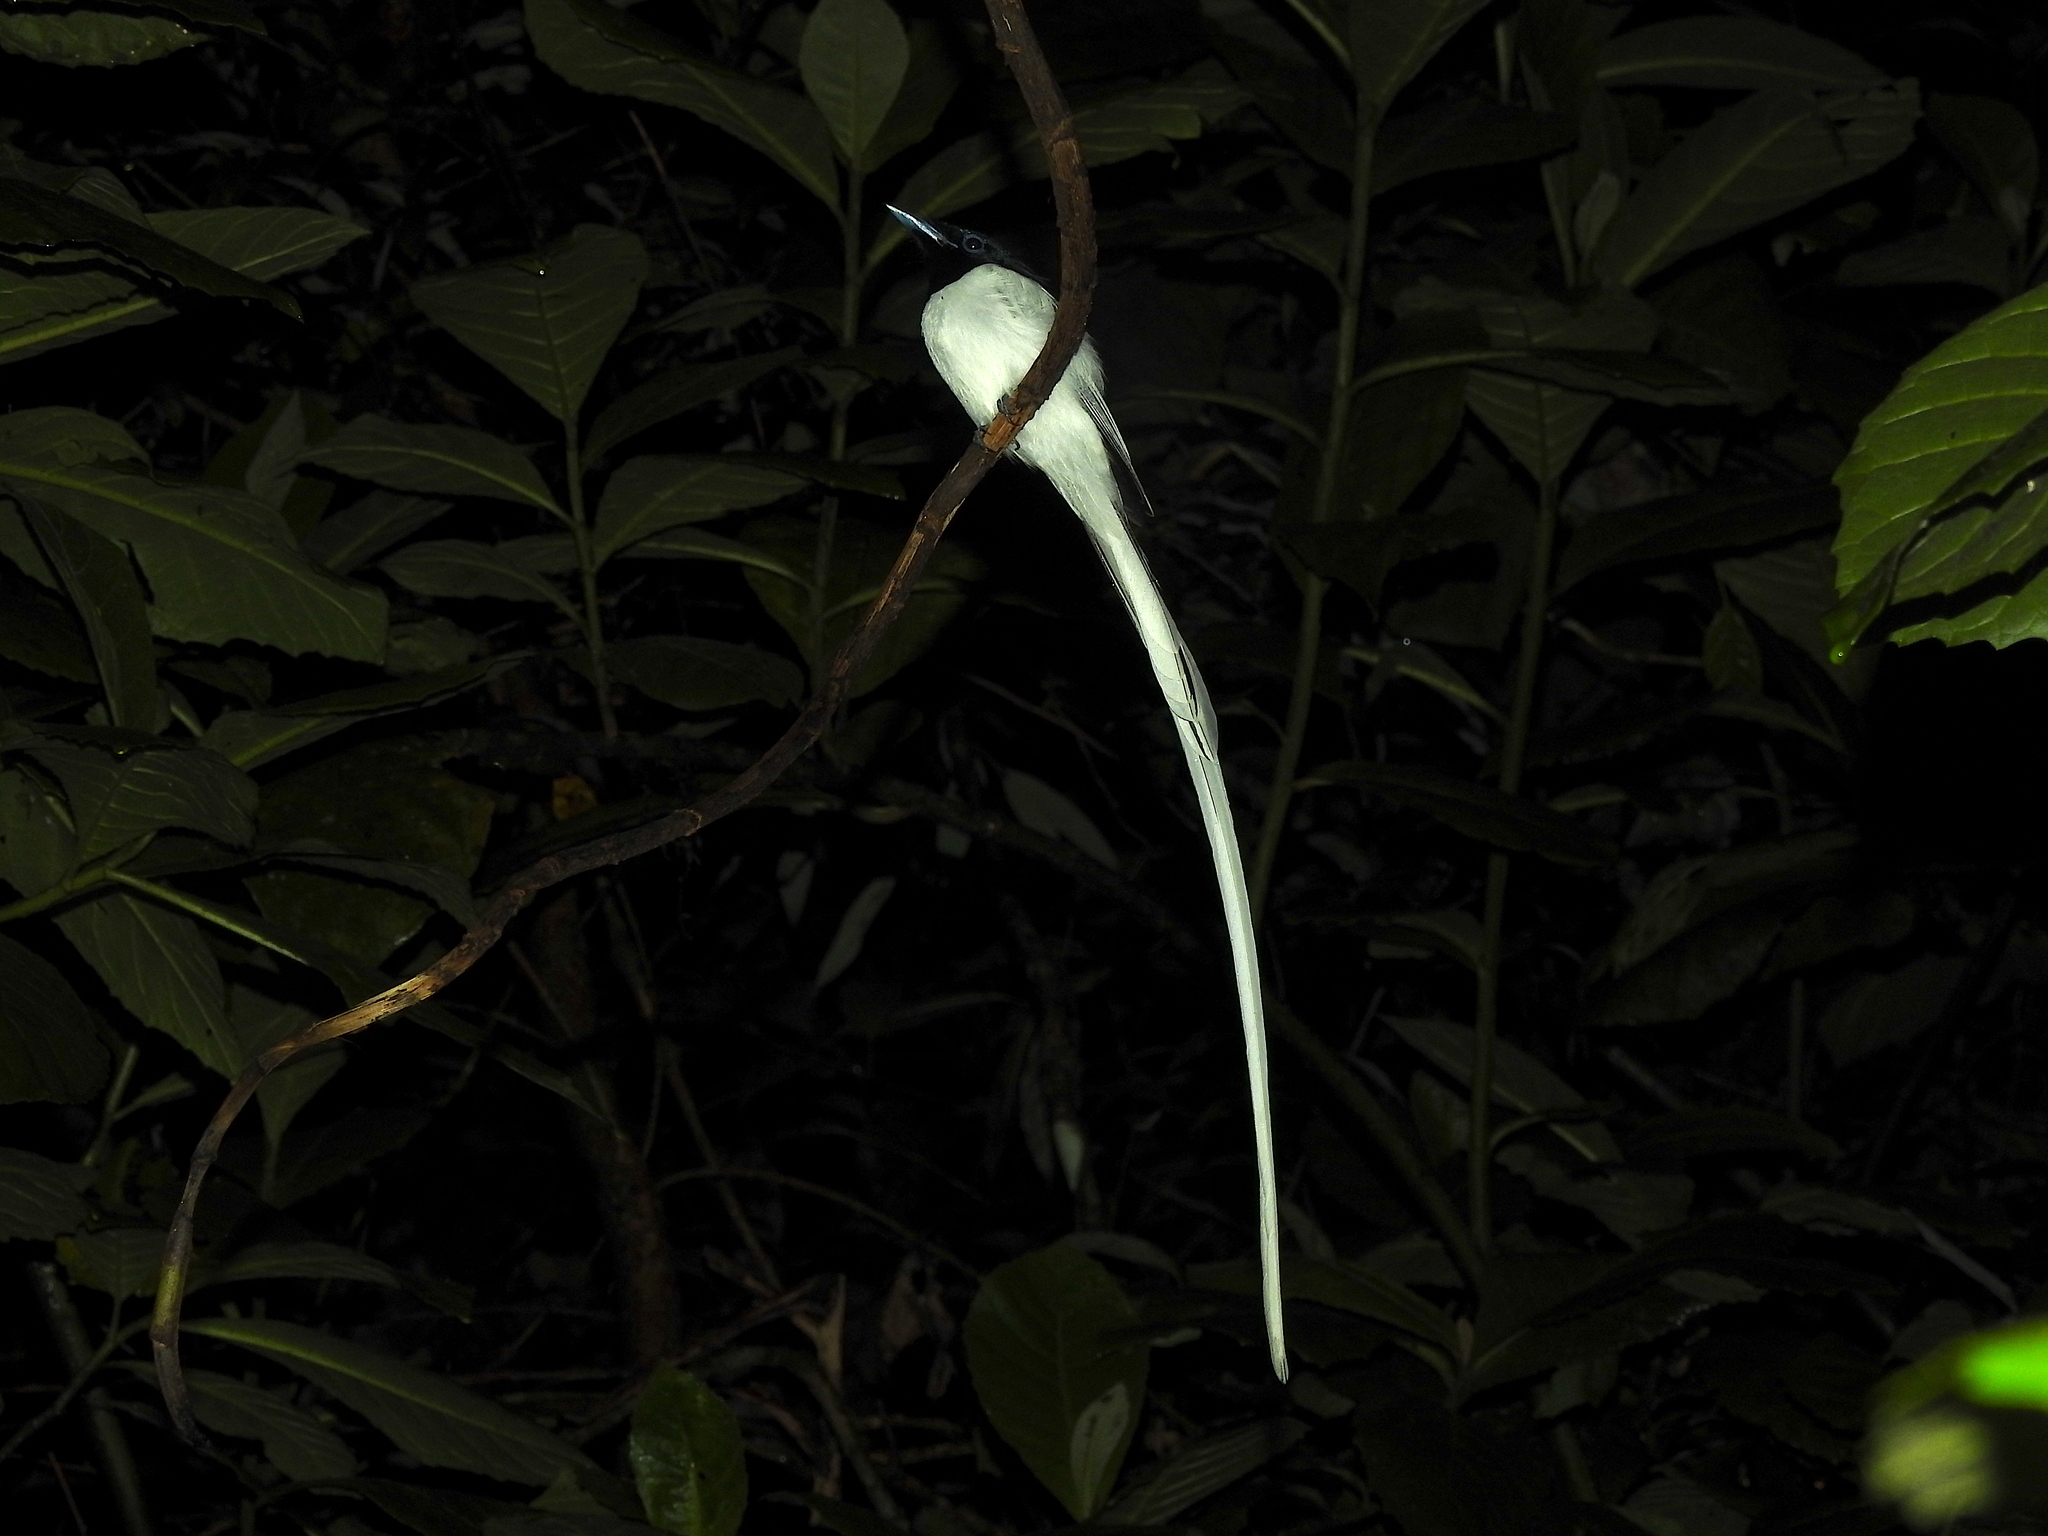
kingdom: Animalia
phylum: Chordata
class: Aves
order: Passeriformes
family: Monarchidae
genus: Terpsiphone
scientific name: Terpsiphone paradisi
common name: Indian paradise flycatcher
